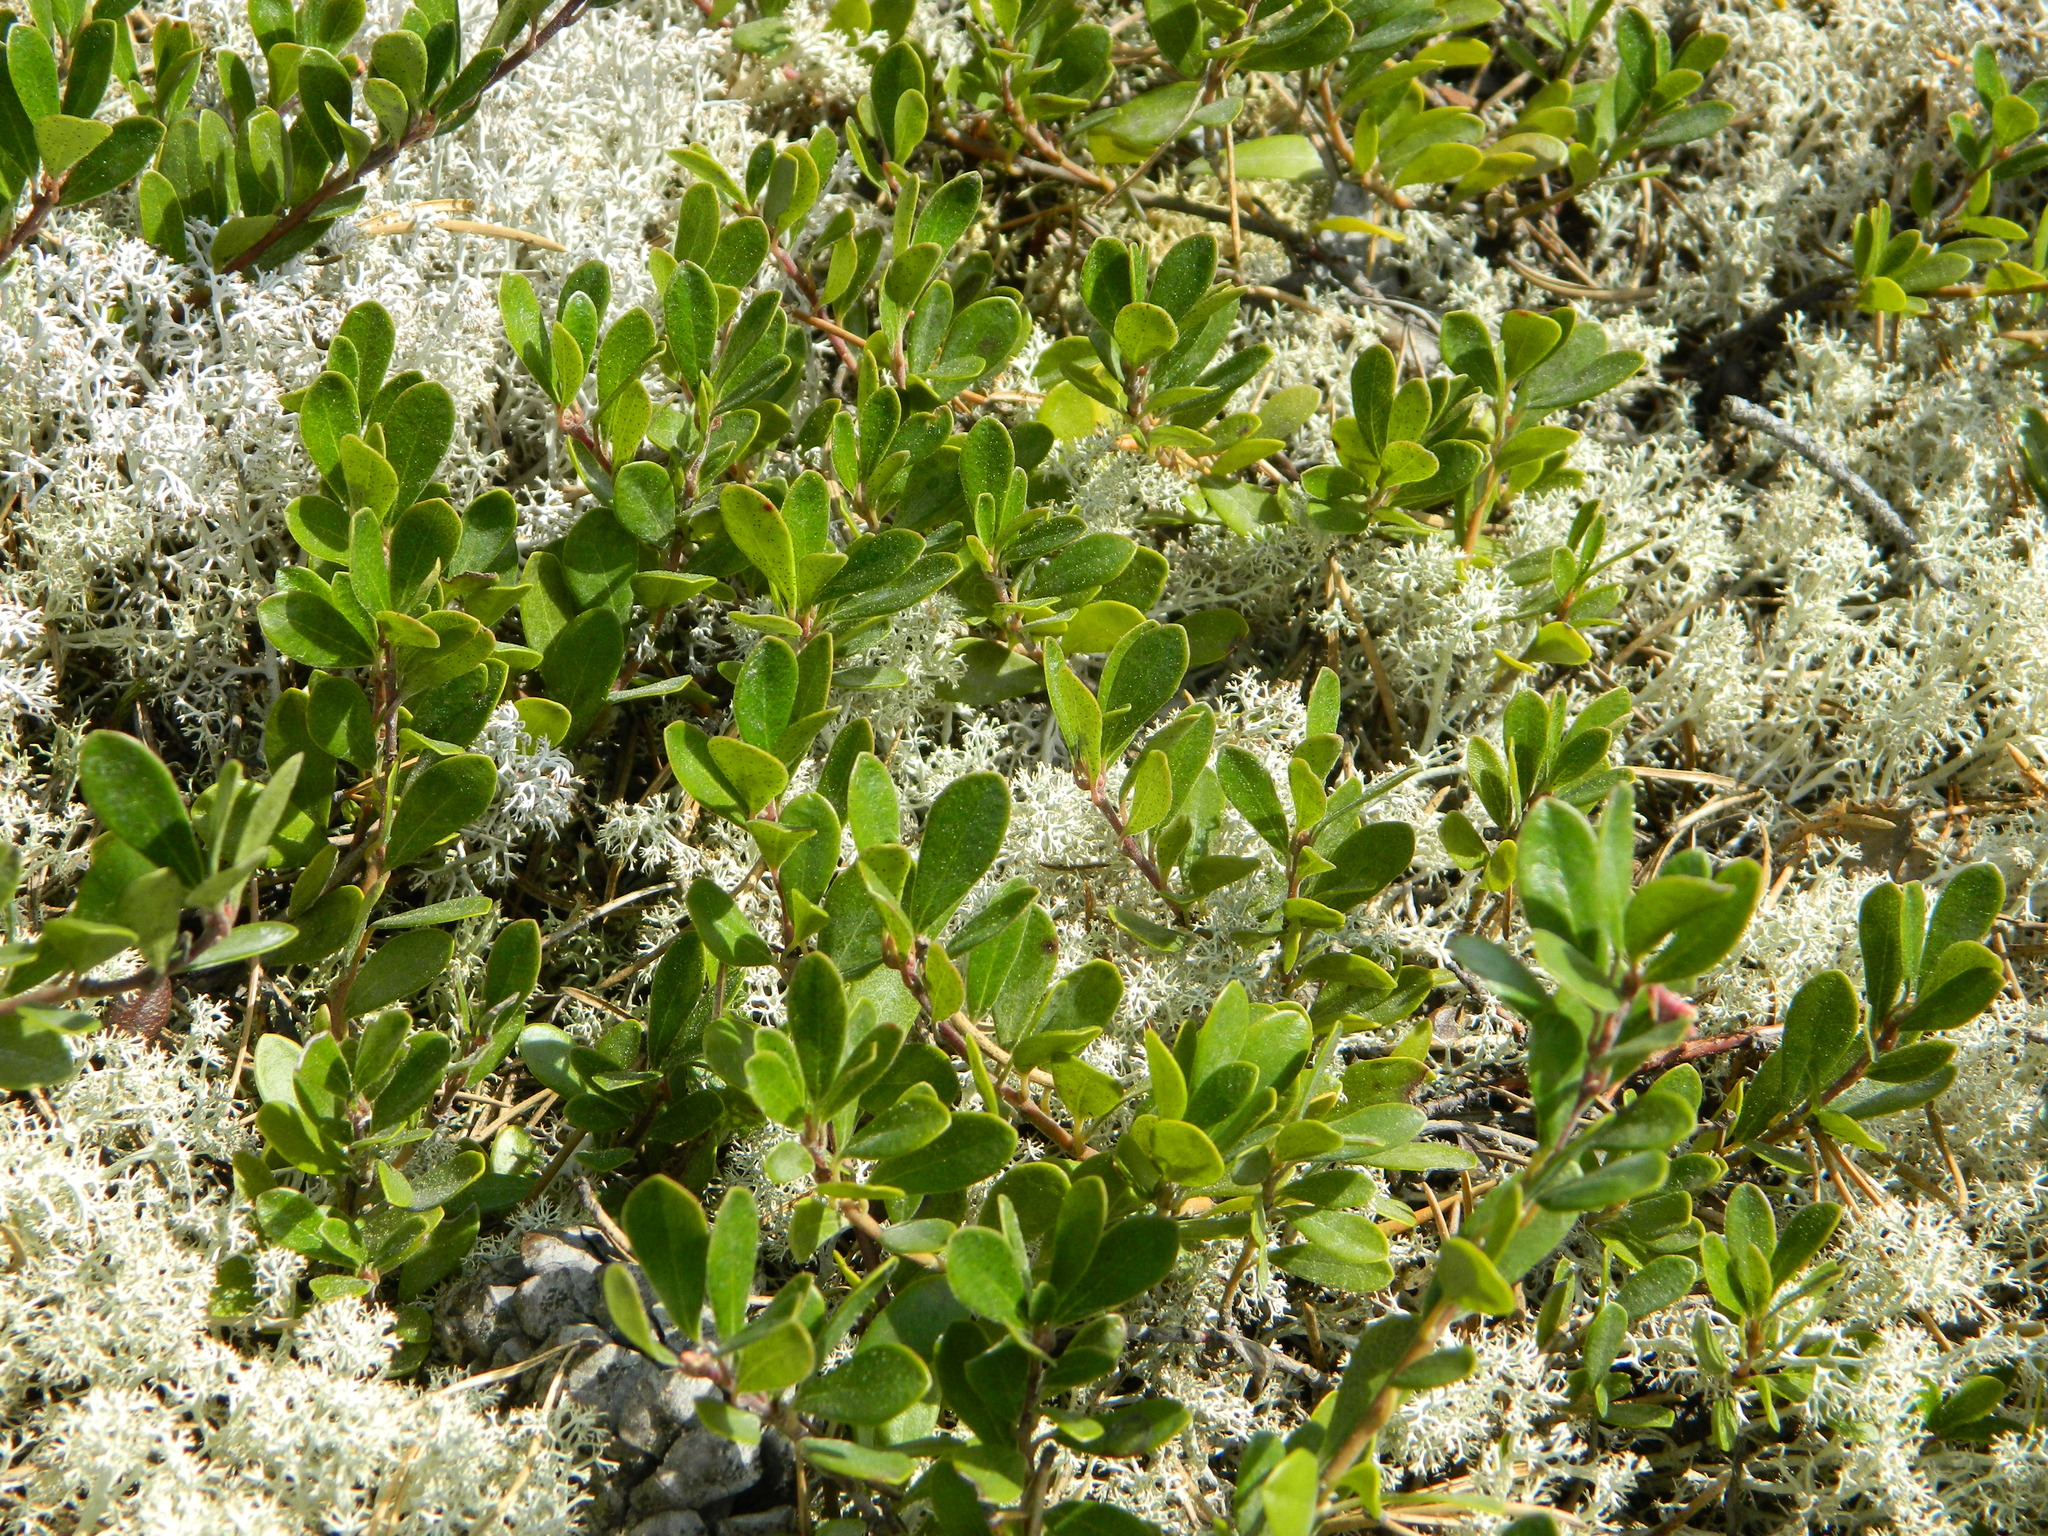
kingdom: Plantae
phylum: Tracheophyta
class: Magnoliopsida
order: Ericales
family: Ericaceae
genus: Arctostaphylos
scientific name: Arctostaphylos uva-ursi
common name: Bearberry
